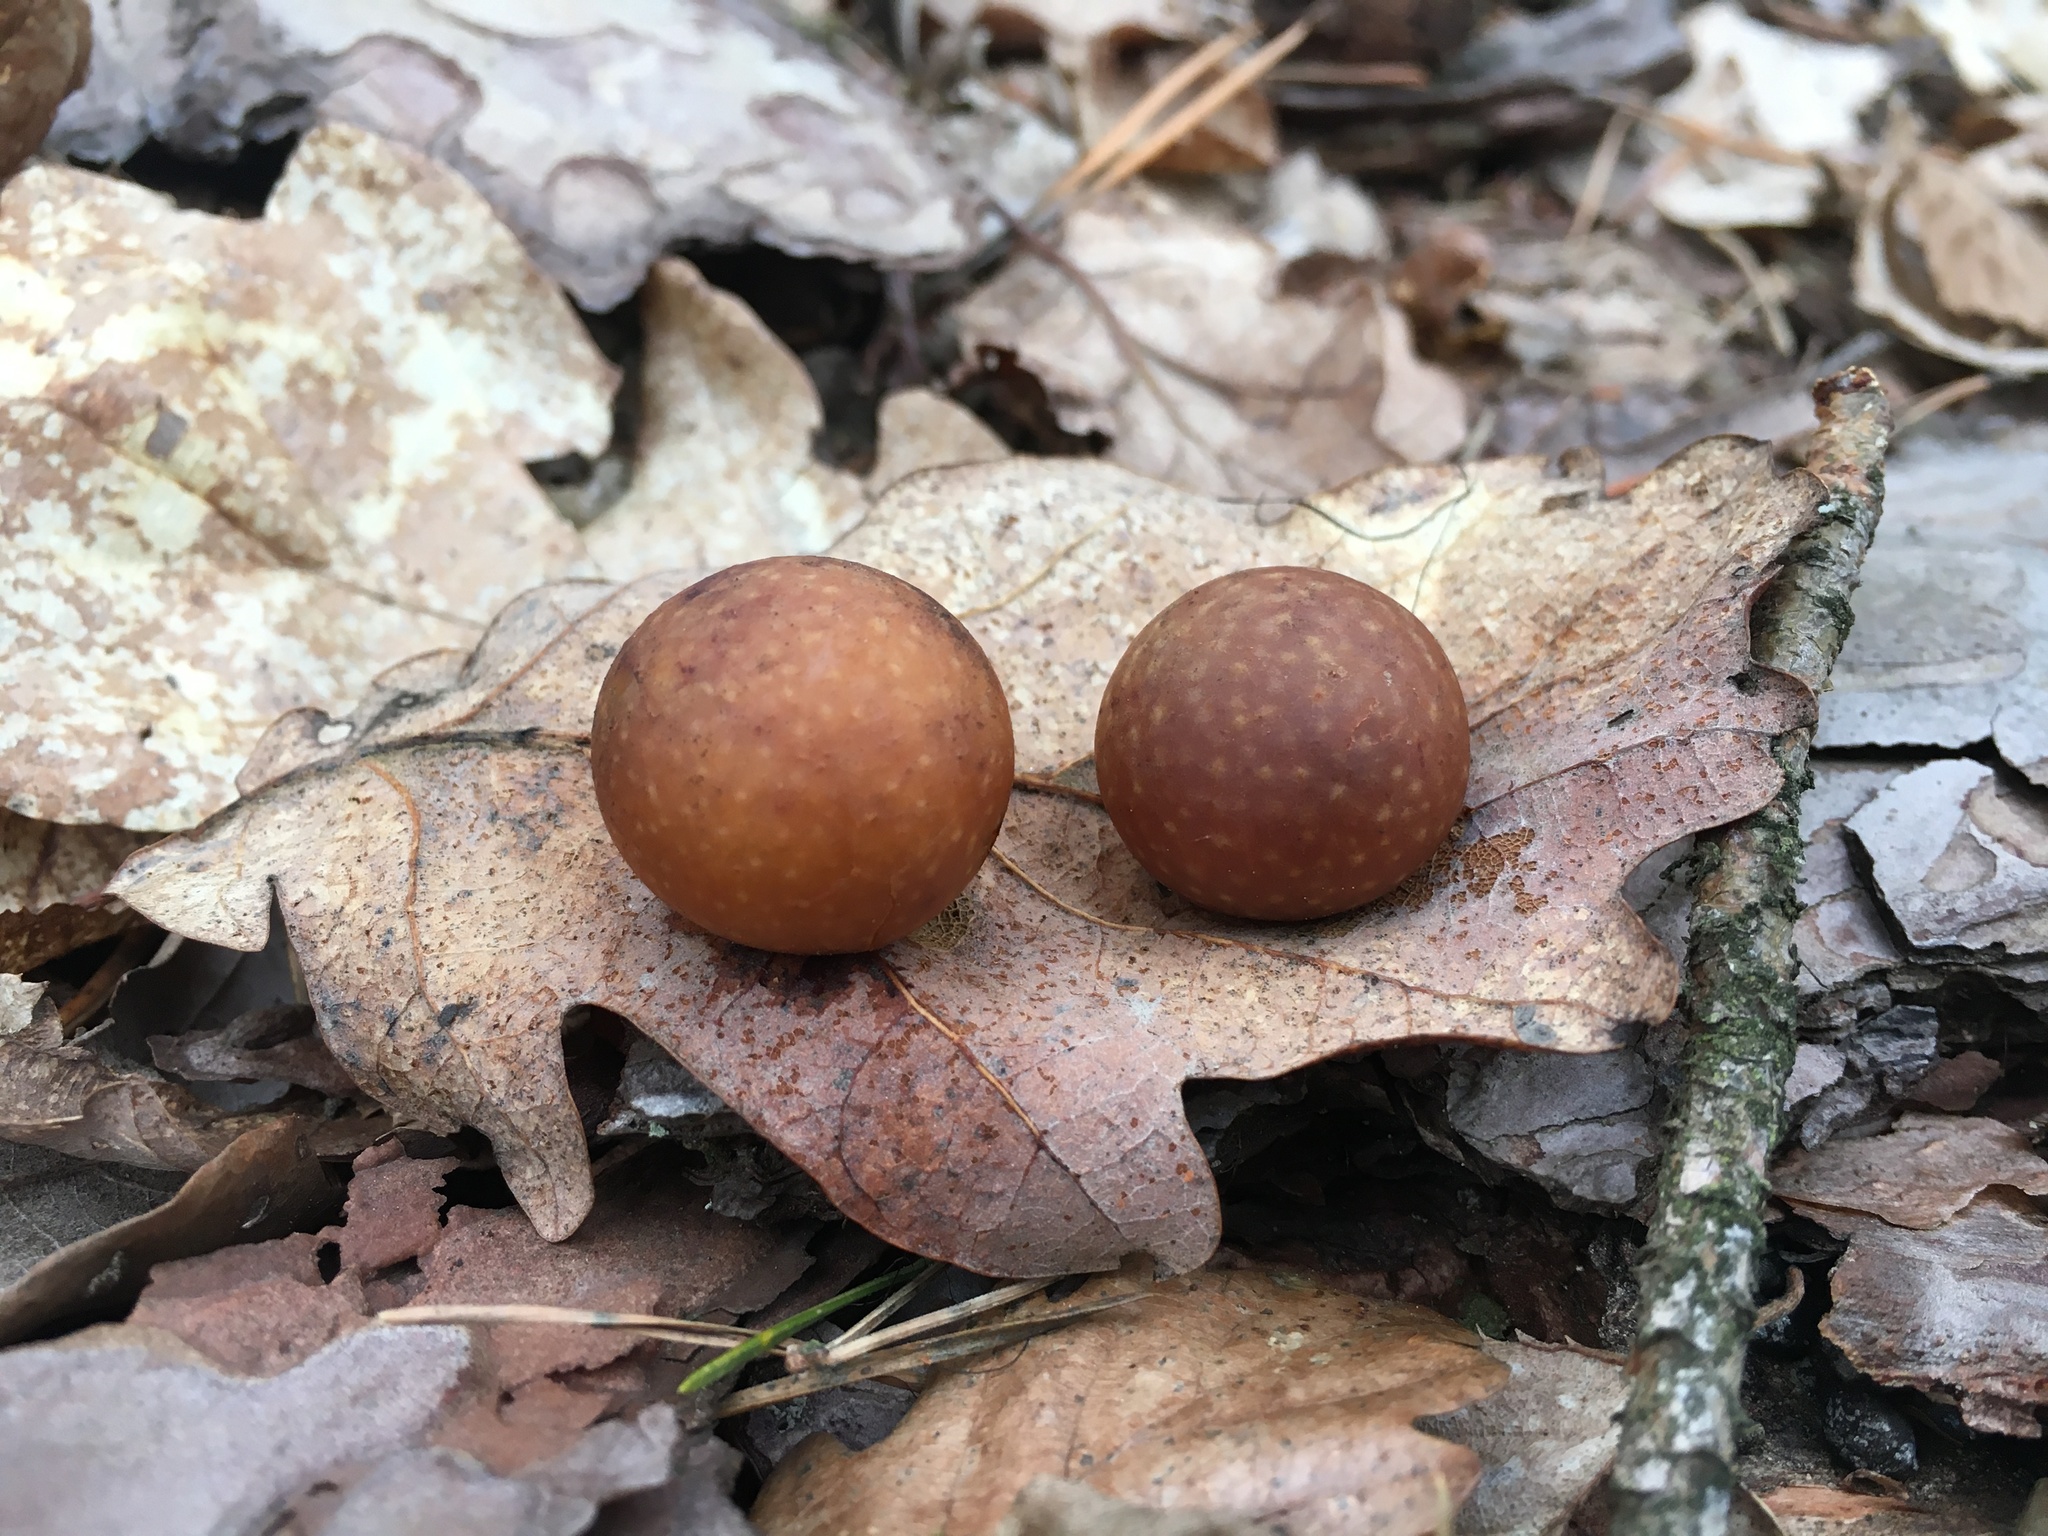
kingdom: Animalia
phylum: Arthropoda
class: Insecta
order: Hymenoptera
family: Cynipidae
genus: Cynips
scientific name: Cynips quercusfolii
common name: Cherry gall
